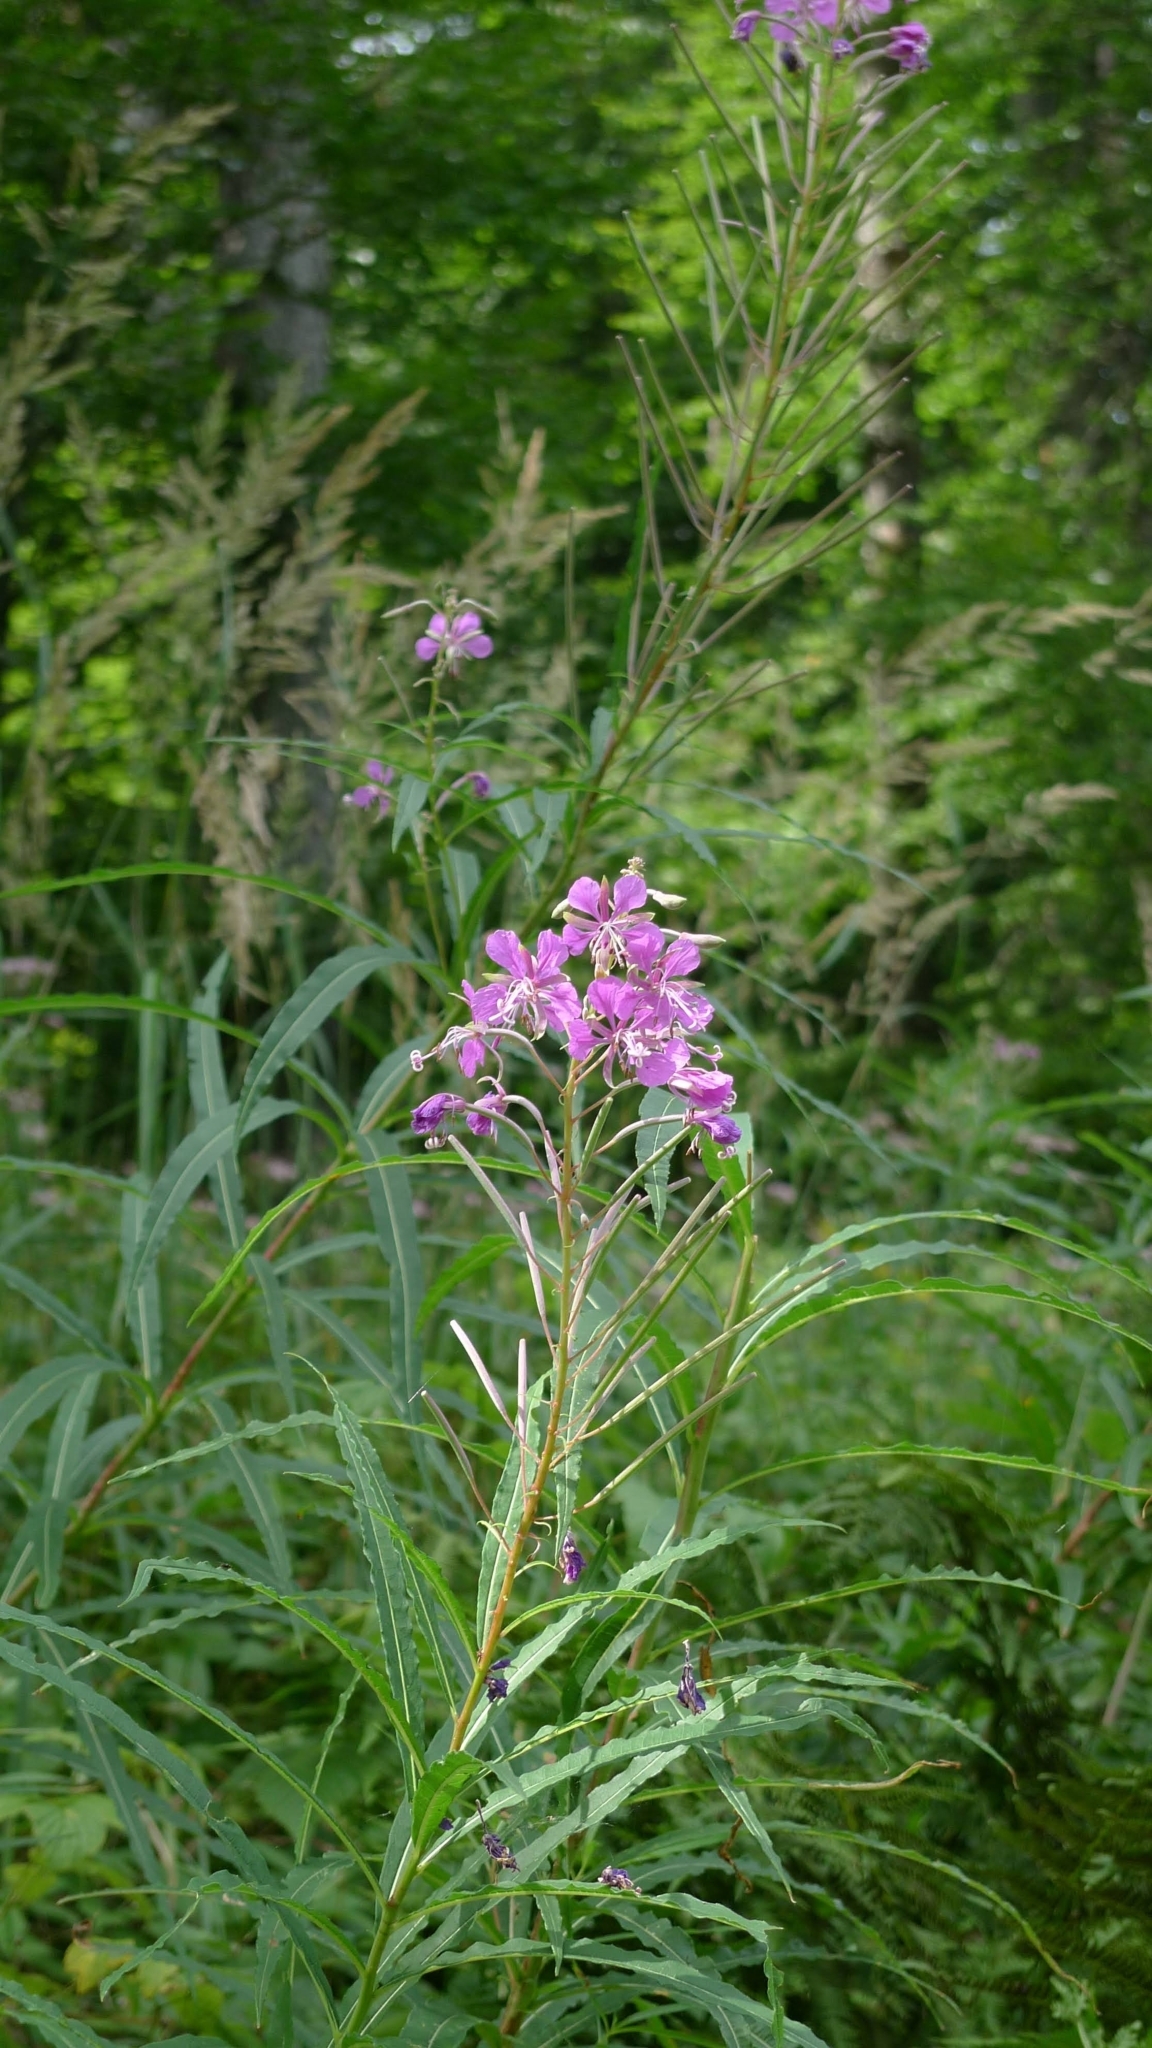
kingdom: Plantae
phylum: Tracheophyta
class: Magnoliopsida
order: Myrtales
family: Onagraceae
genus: Chamaenerion
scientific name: Chamaenerion angustifolium
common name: Fireweed
